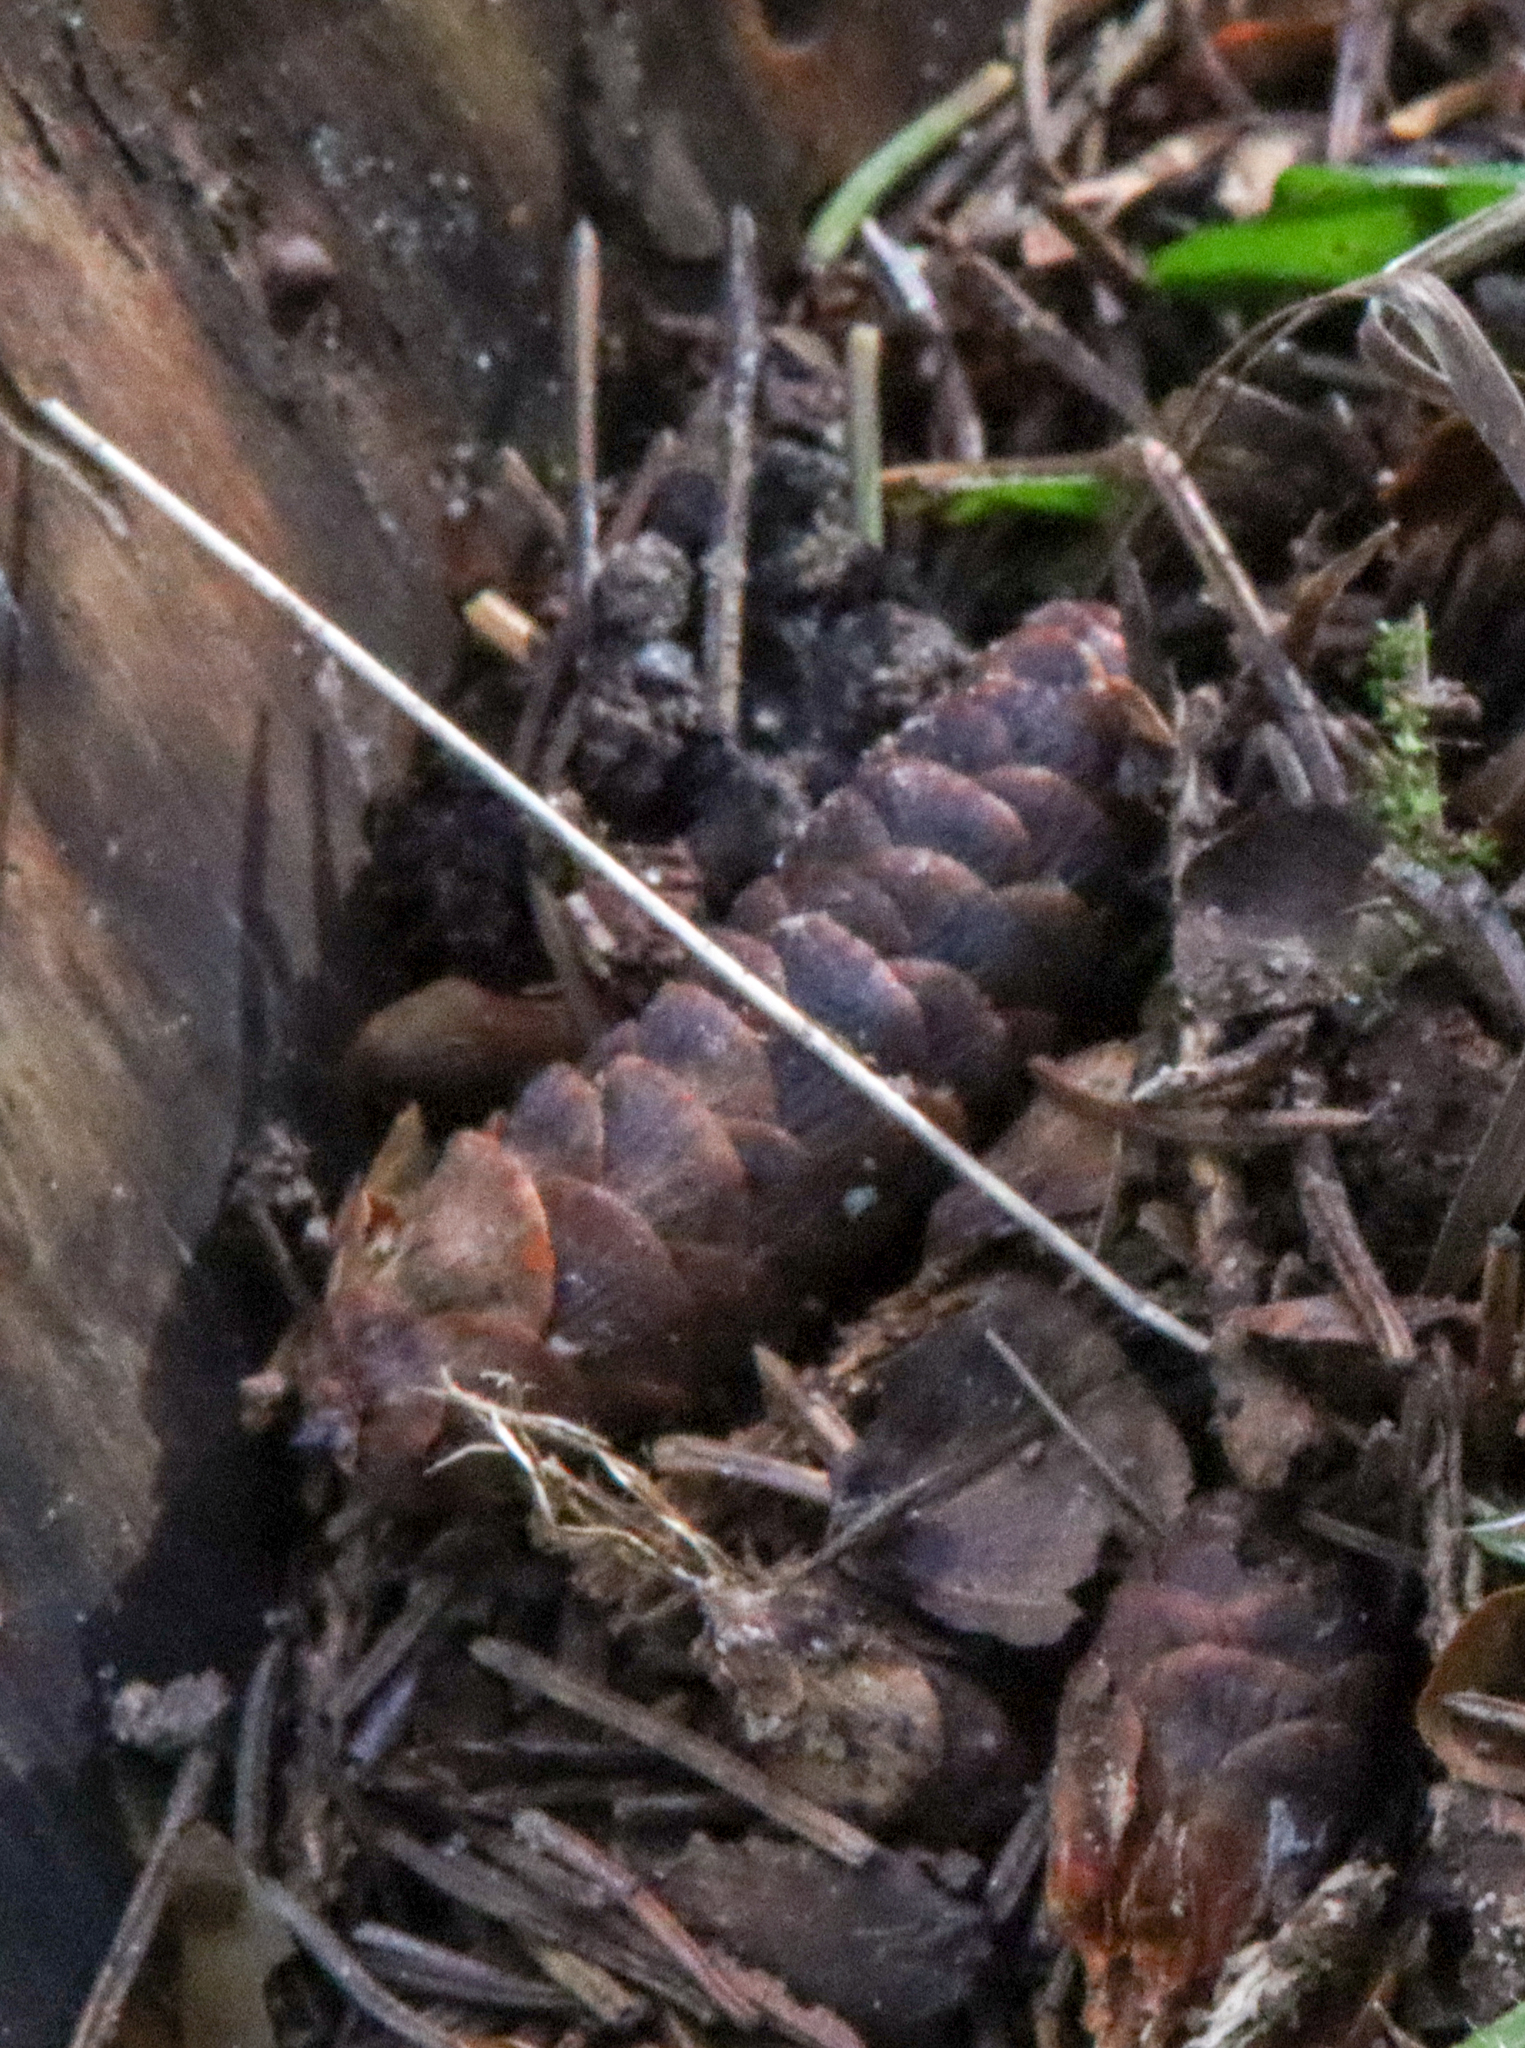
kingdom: Plantae
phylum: Tracheophyta
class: Pinopsida
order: Pinales
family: Pinaceae
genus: Picea
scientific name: Picea glauca
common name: White spruce
